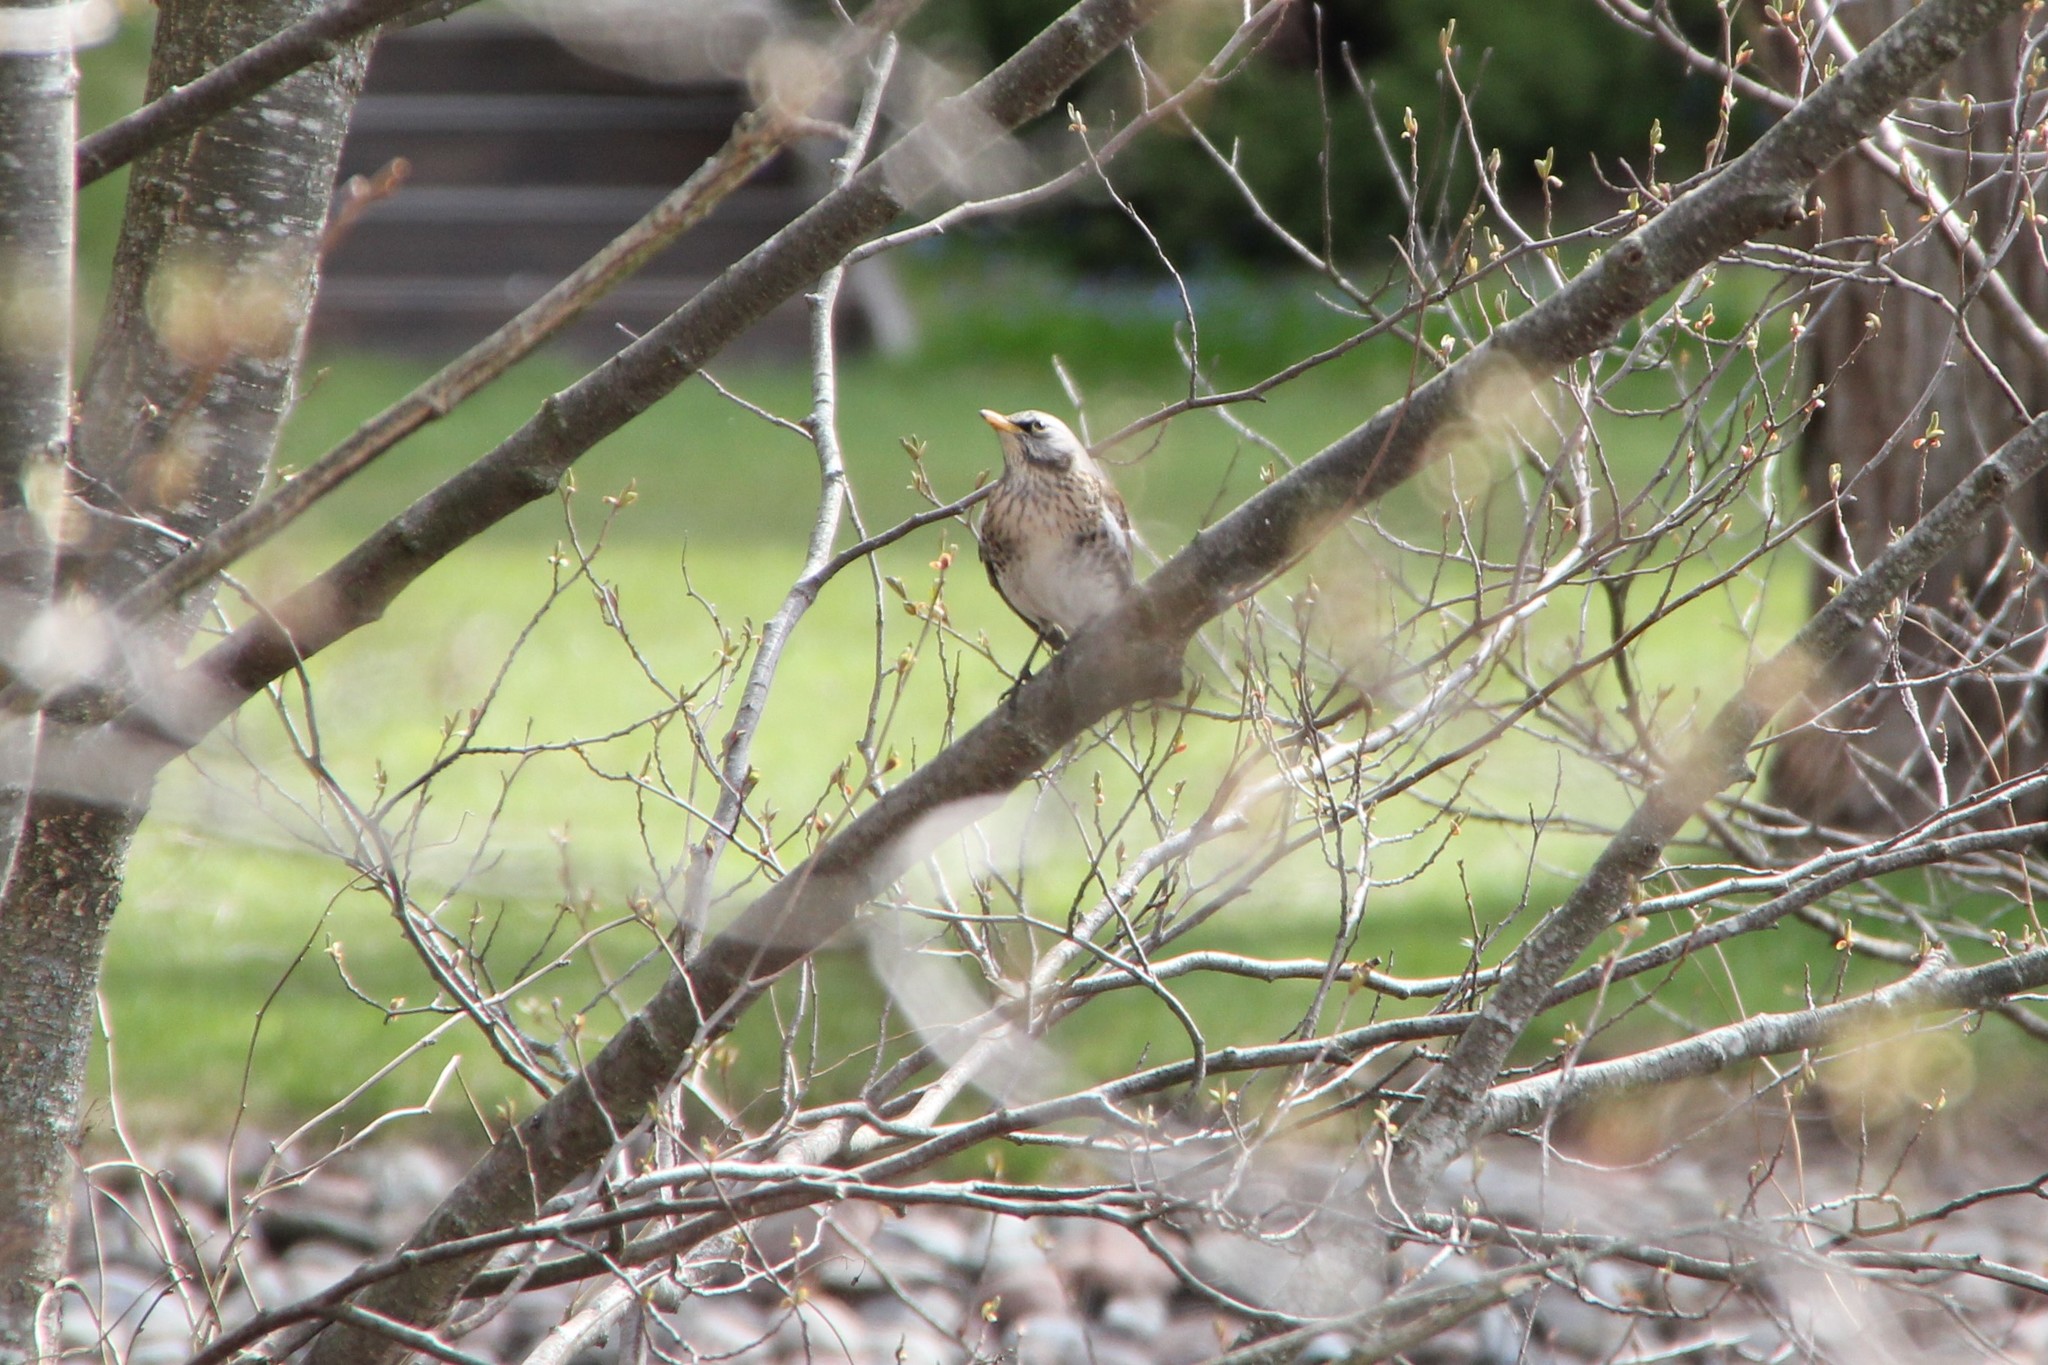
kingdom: Animalia
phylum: Chordata
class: Aves
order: Passeriformes
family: Turdidae
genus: Turdus
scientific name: Turdus pilaris
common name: Fieldfare
